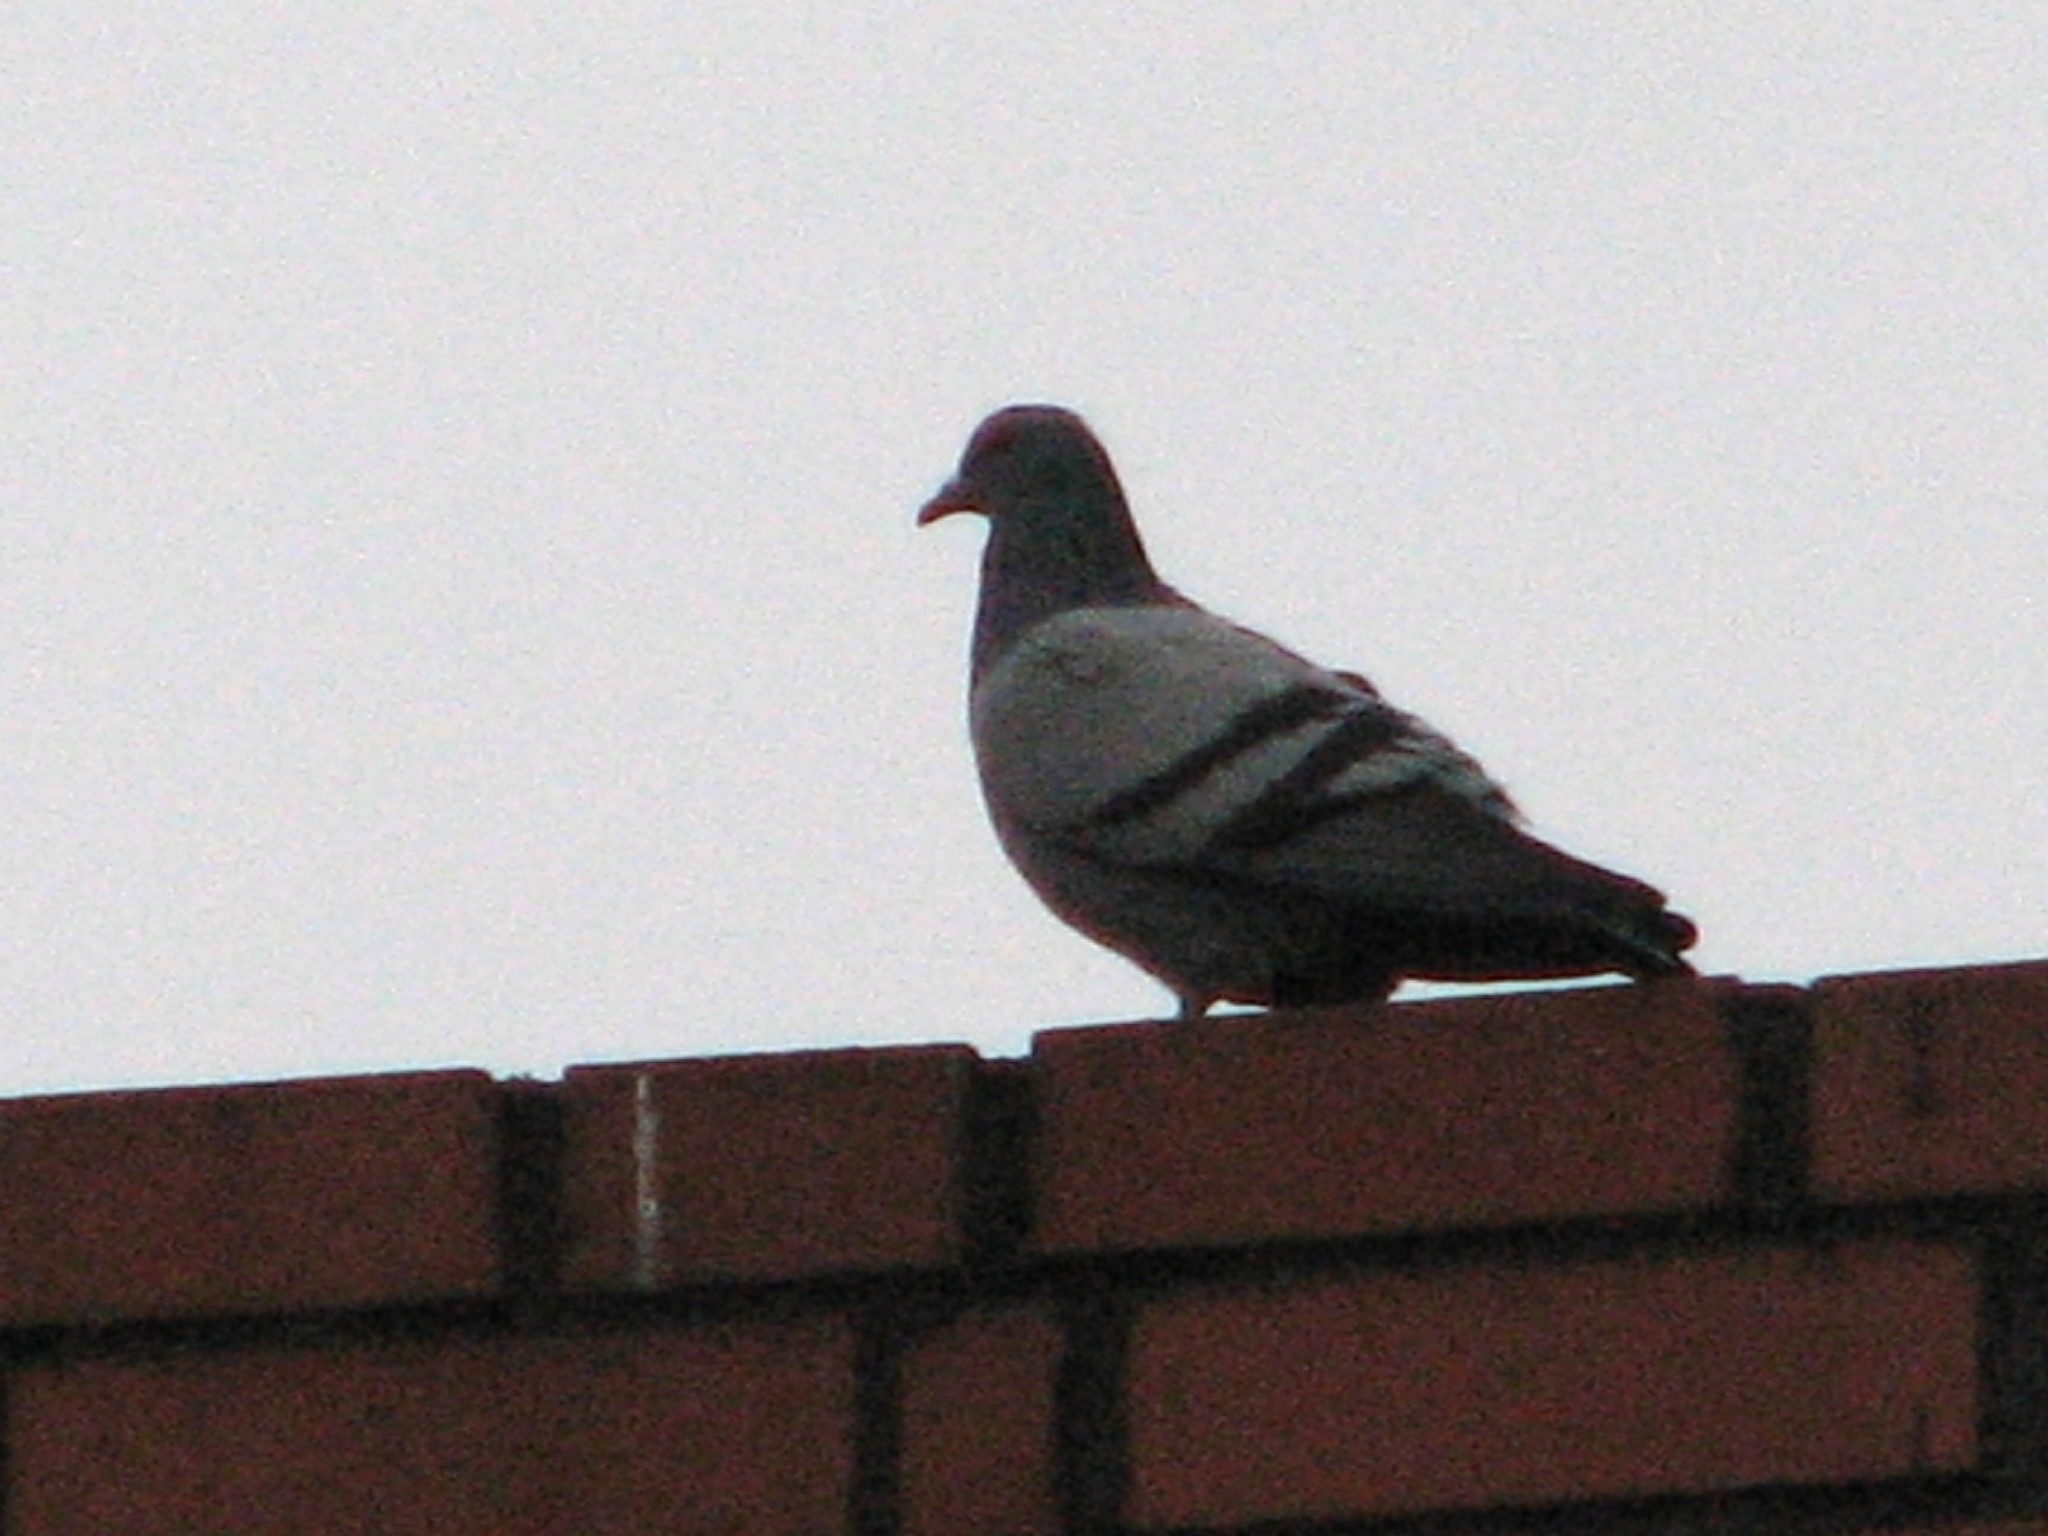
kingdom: Animalia
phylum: Chordata
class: Aves
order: Columbiformes
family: Columbidae
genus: Columba
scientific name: Columba livia
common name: Rock pigeon
